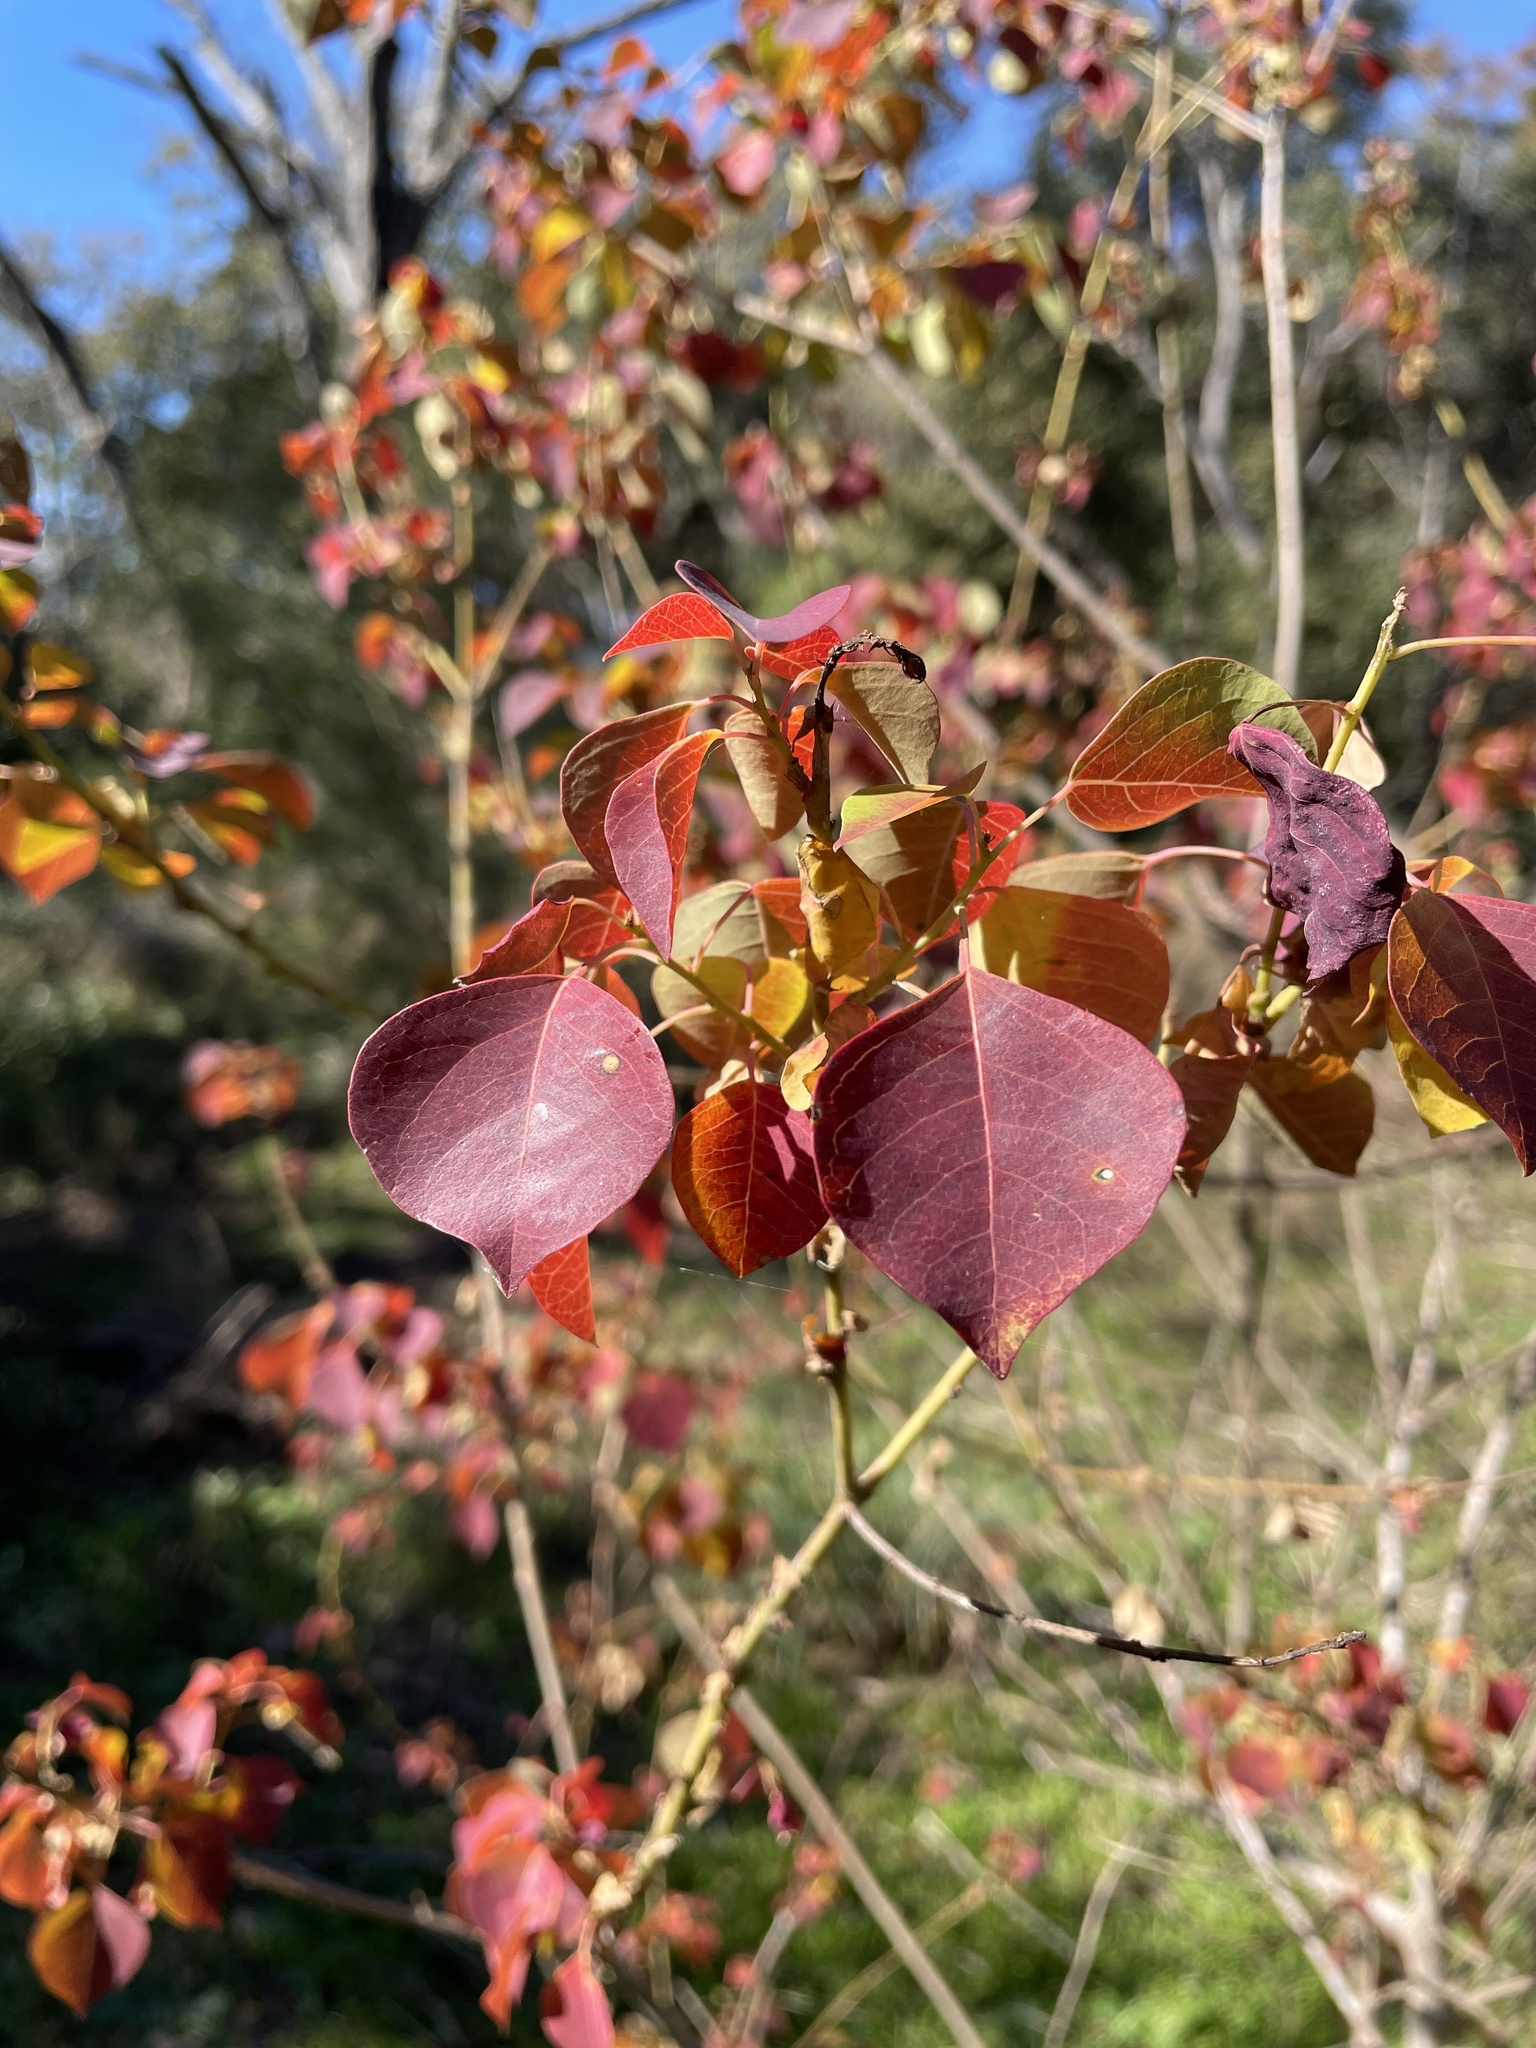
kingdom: Plantae
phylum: Tracheophyta
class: Magnoliopsida
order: Malpighiales
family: Euphorbiaceae
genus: Triadica
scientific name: Triadica sebifera
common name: Chinese tallow
